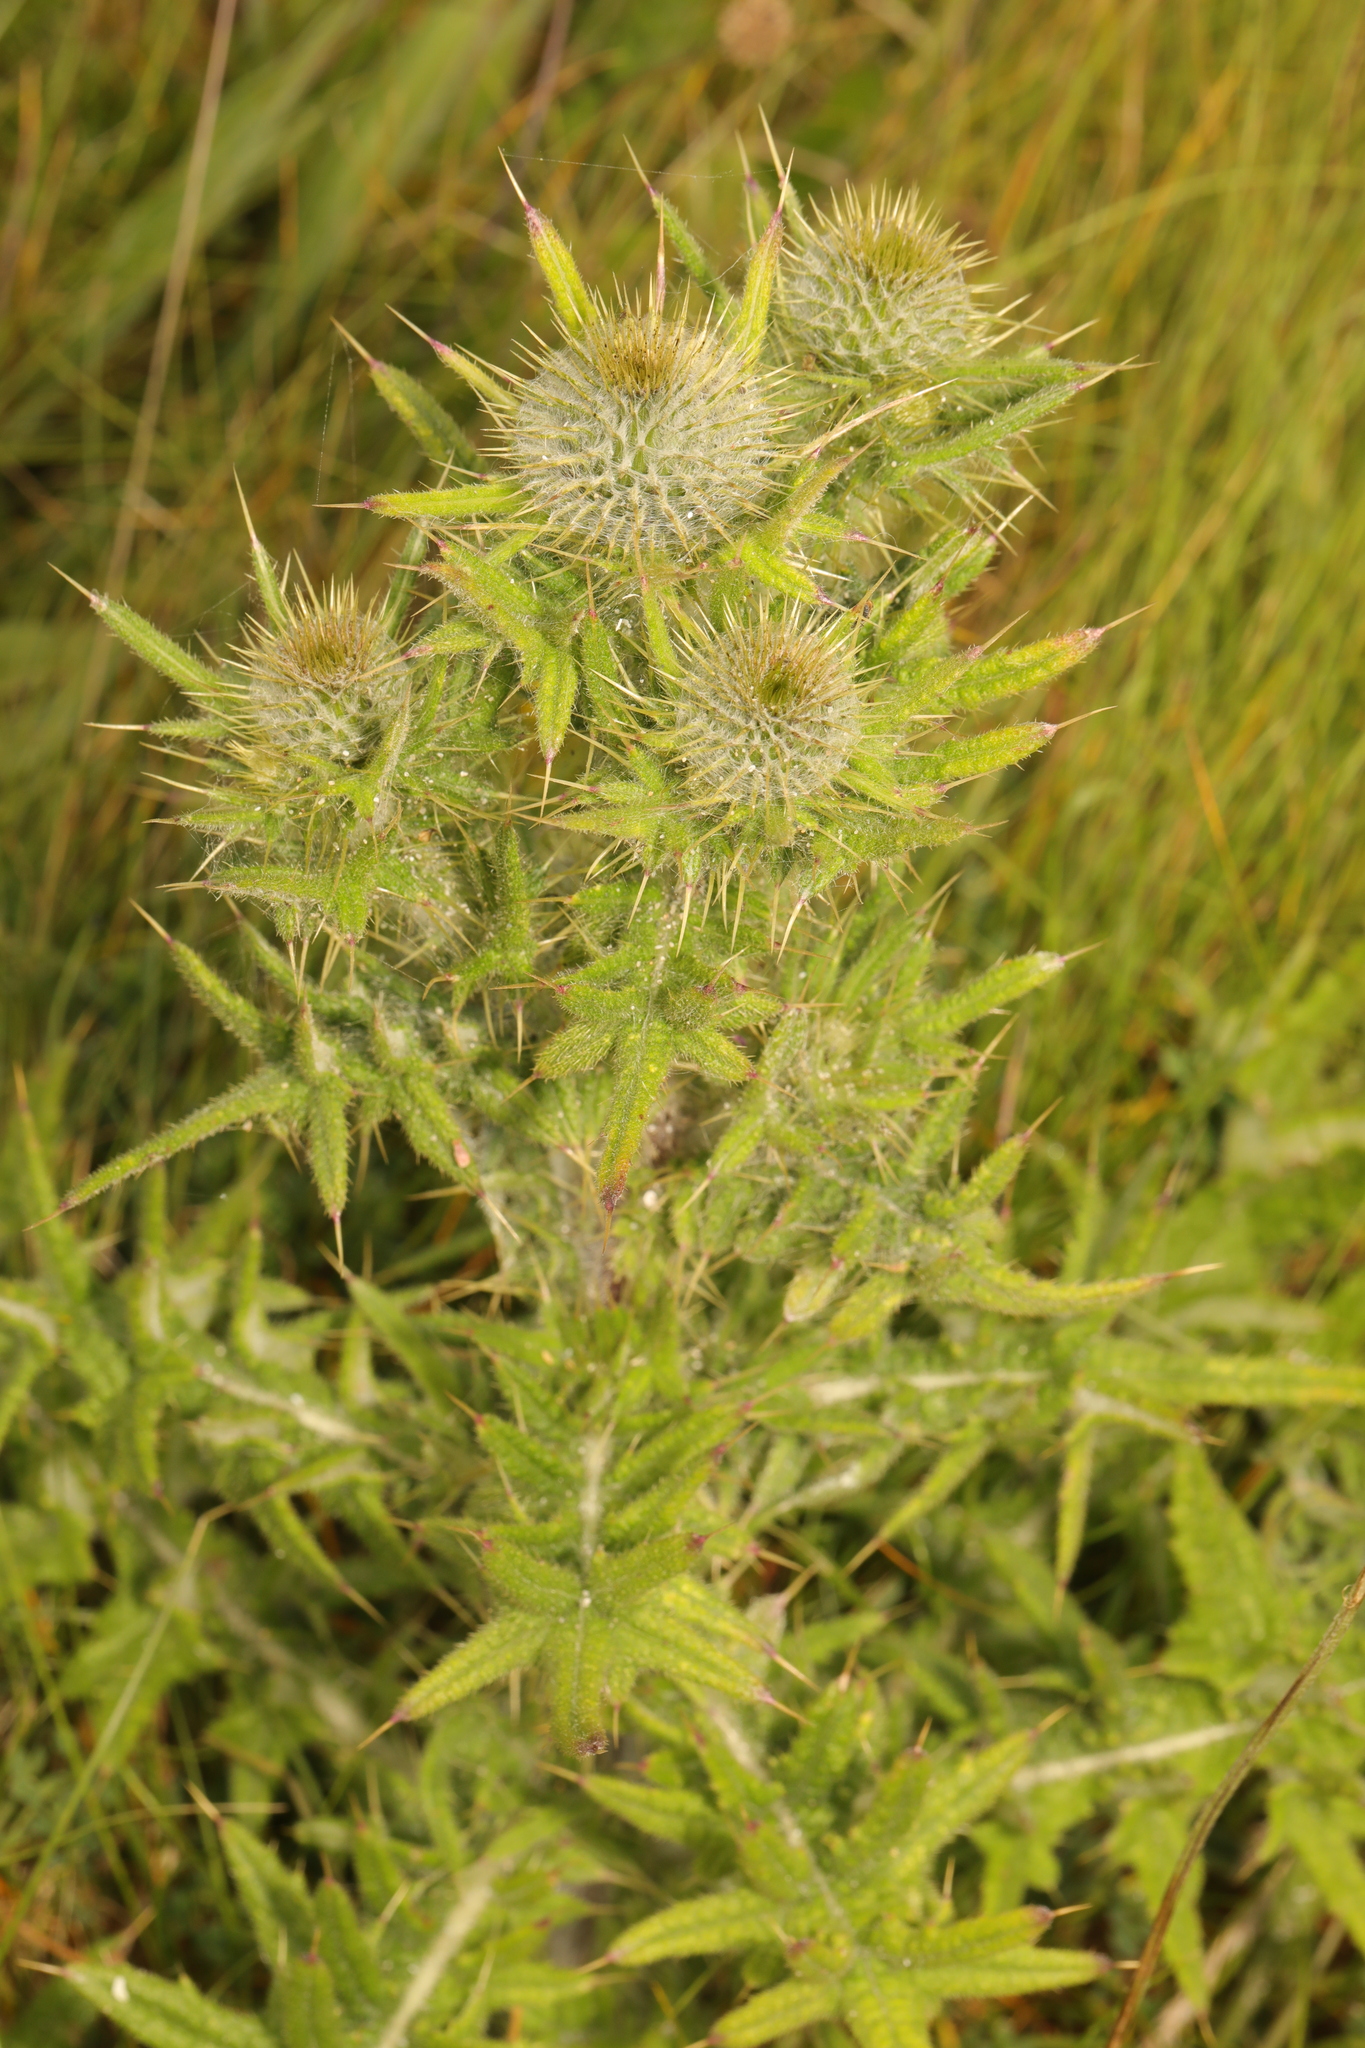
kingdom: Plantae
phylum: Tracheophyta
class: Magnoliopsida
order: Asterales
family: Asteraceae
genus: Cirsium
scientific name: Cirsium vulgare
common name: Bull thistle
